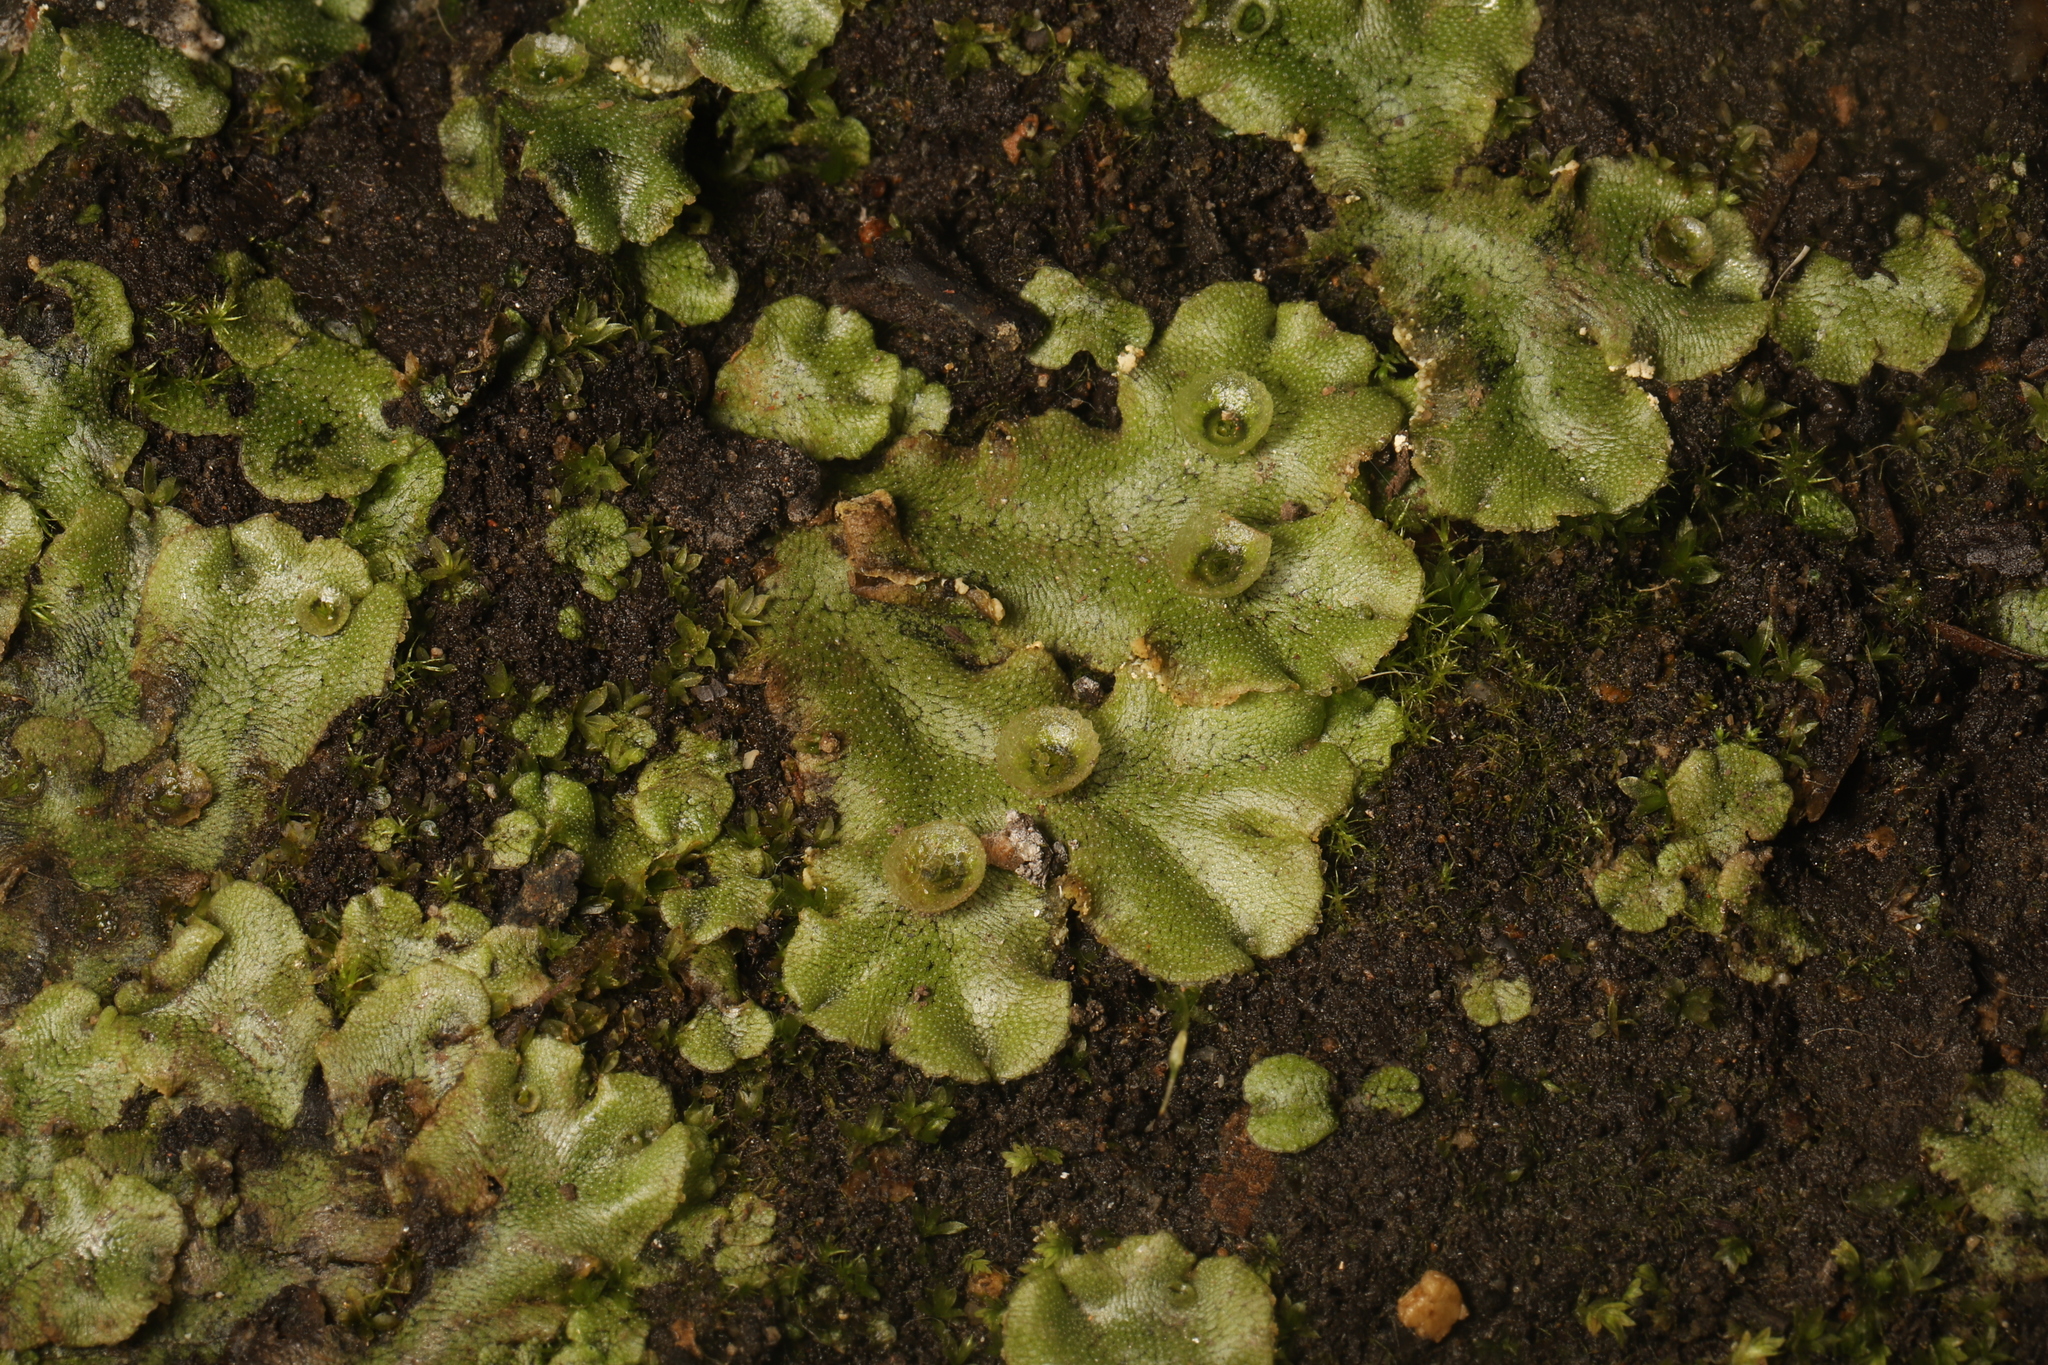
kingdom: Plantae
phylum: Marchantiophyta
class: Marchantiopsida
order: Marchantiales
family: Marchantiaceae
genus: Marchantia
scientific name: Marchantia polymorpha
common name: Common liverwort
